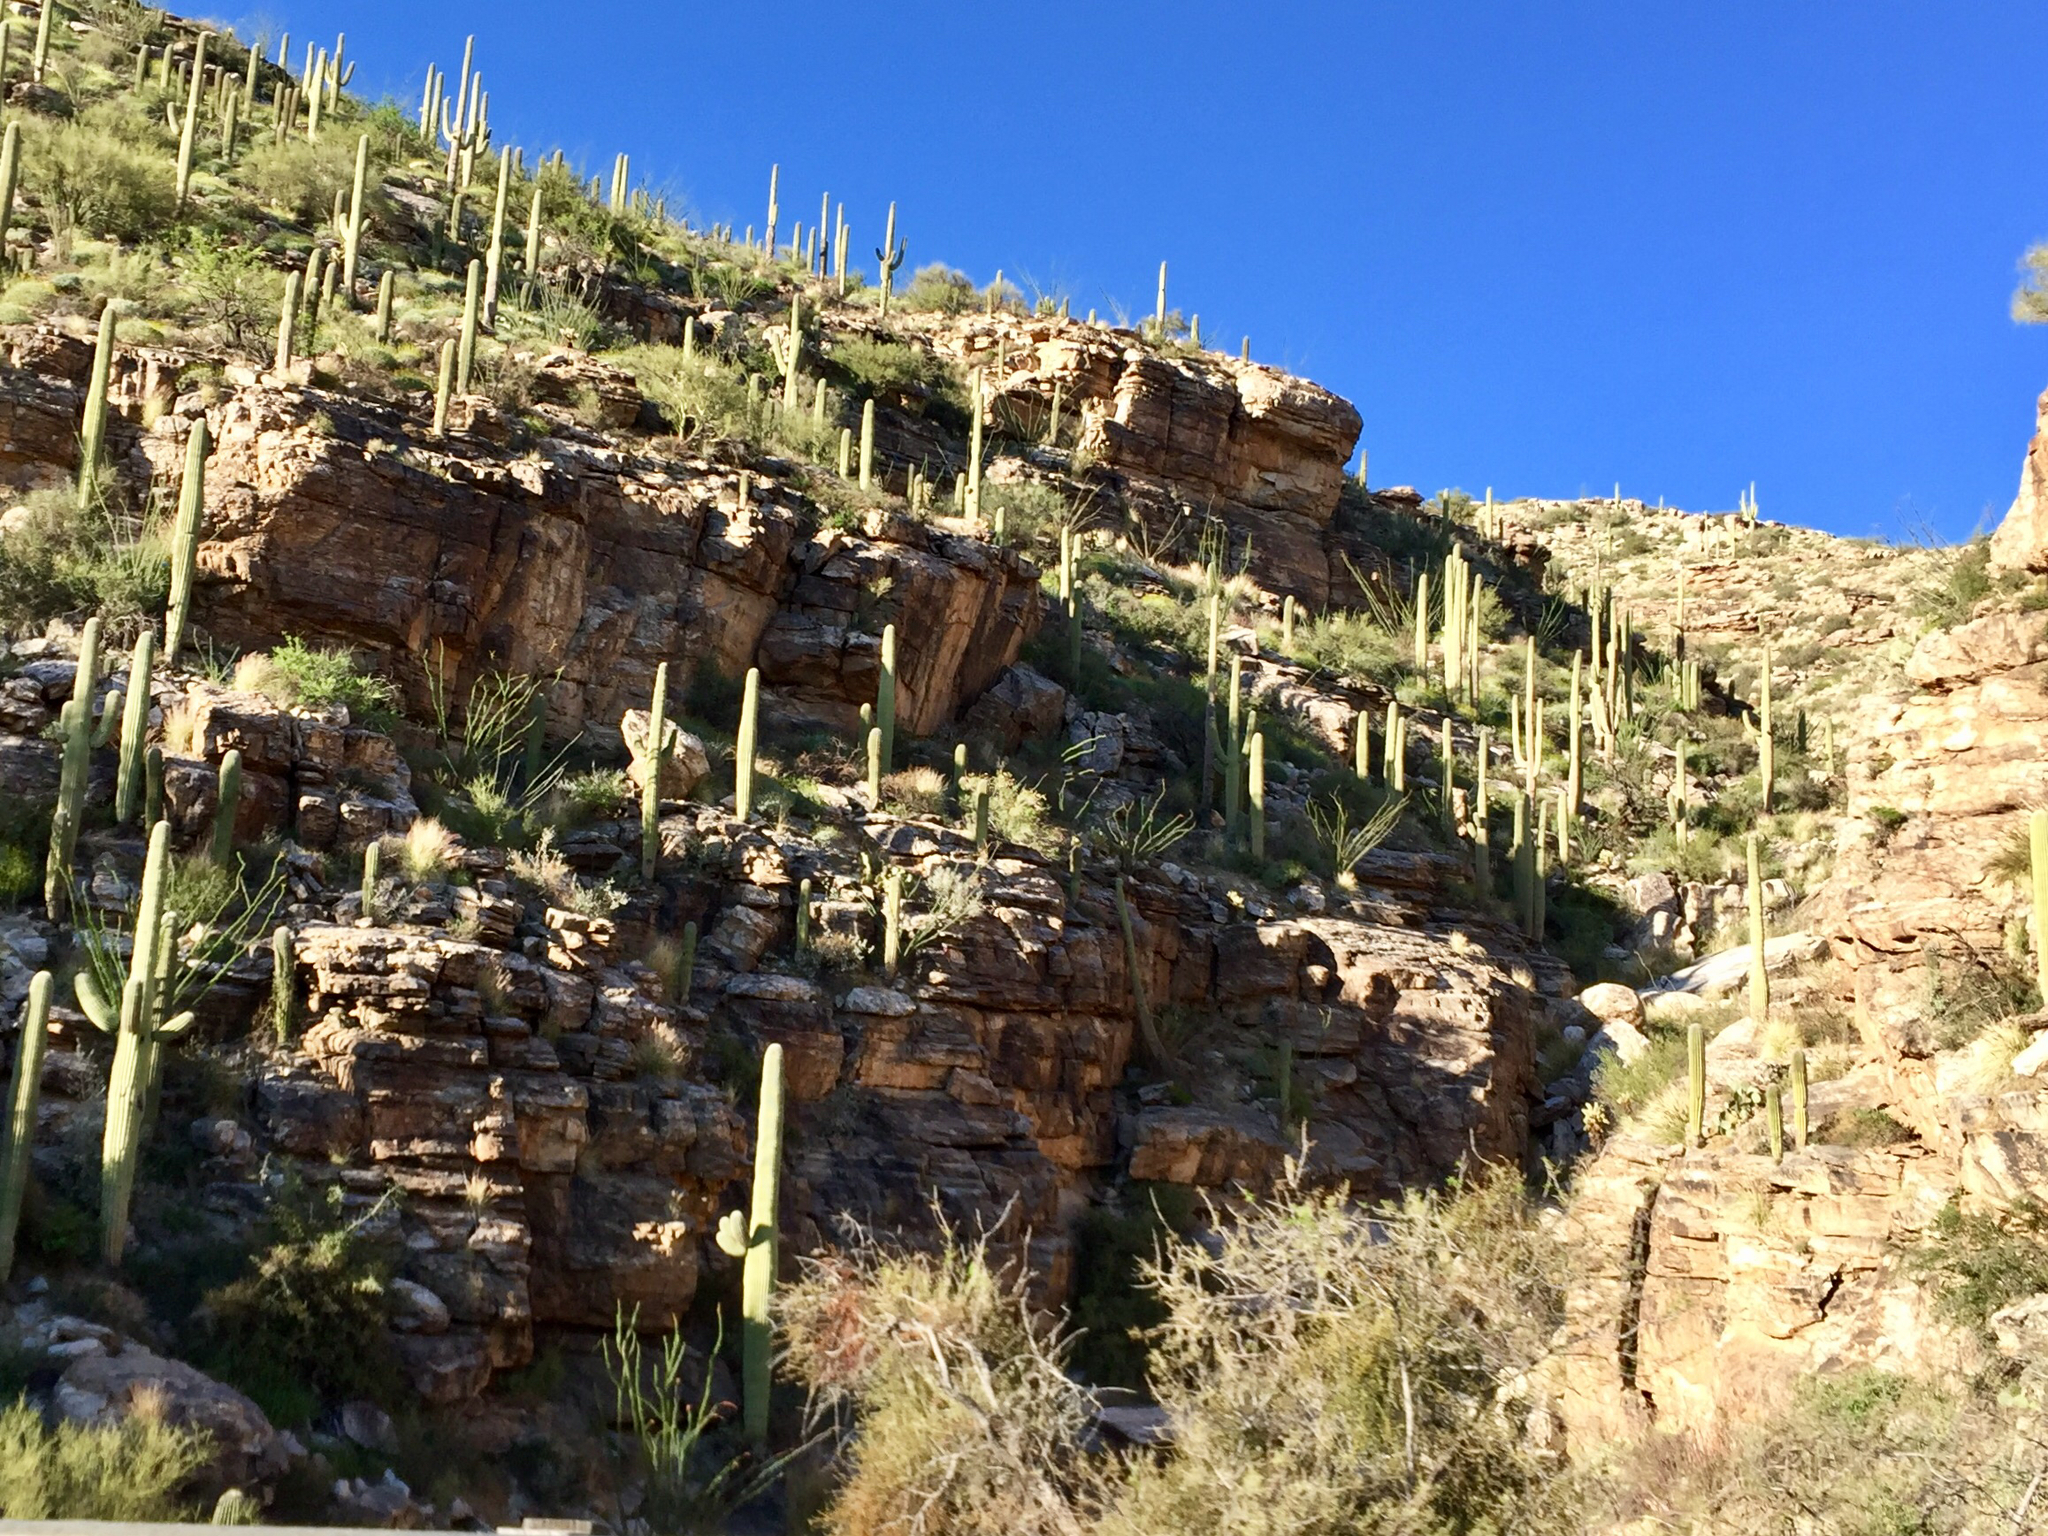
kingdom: Plantae
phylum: Tracheophyta
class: Magnoliopsida
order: Caryophyllales
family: Cactaceae
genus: Carnegiea
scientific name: Carnegiea gigantea
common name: Saguaro
